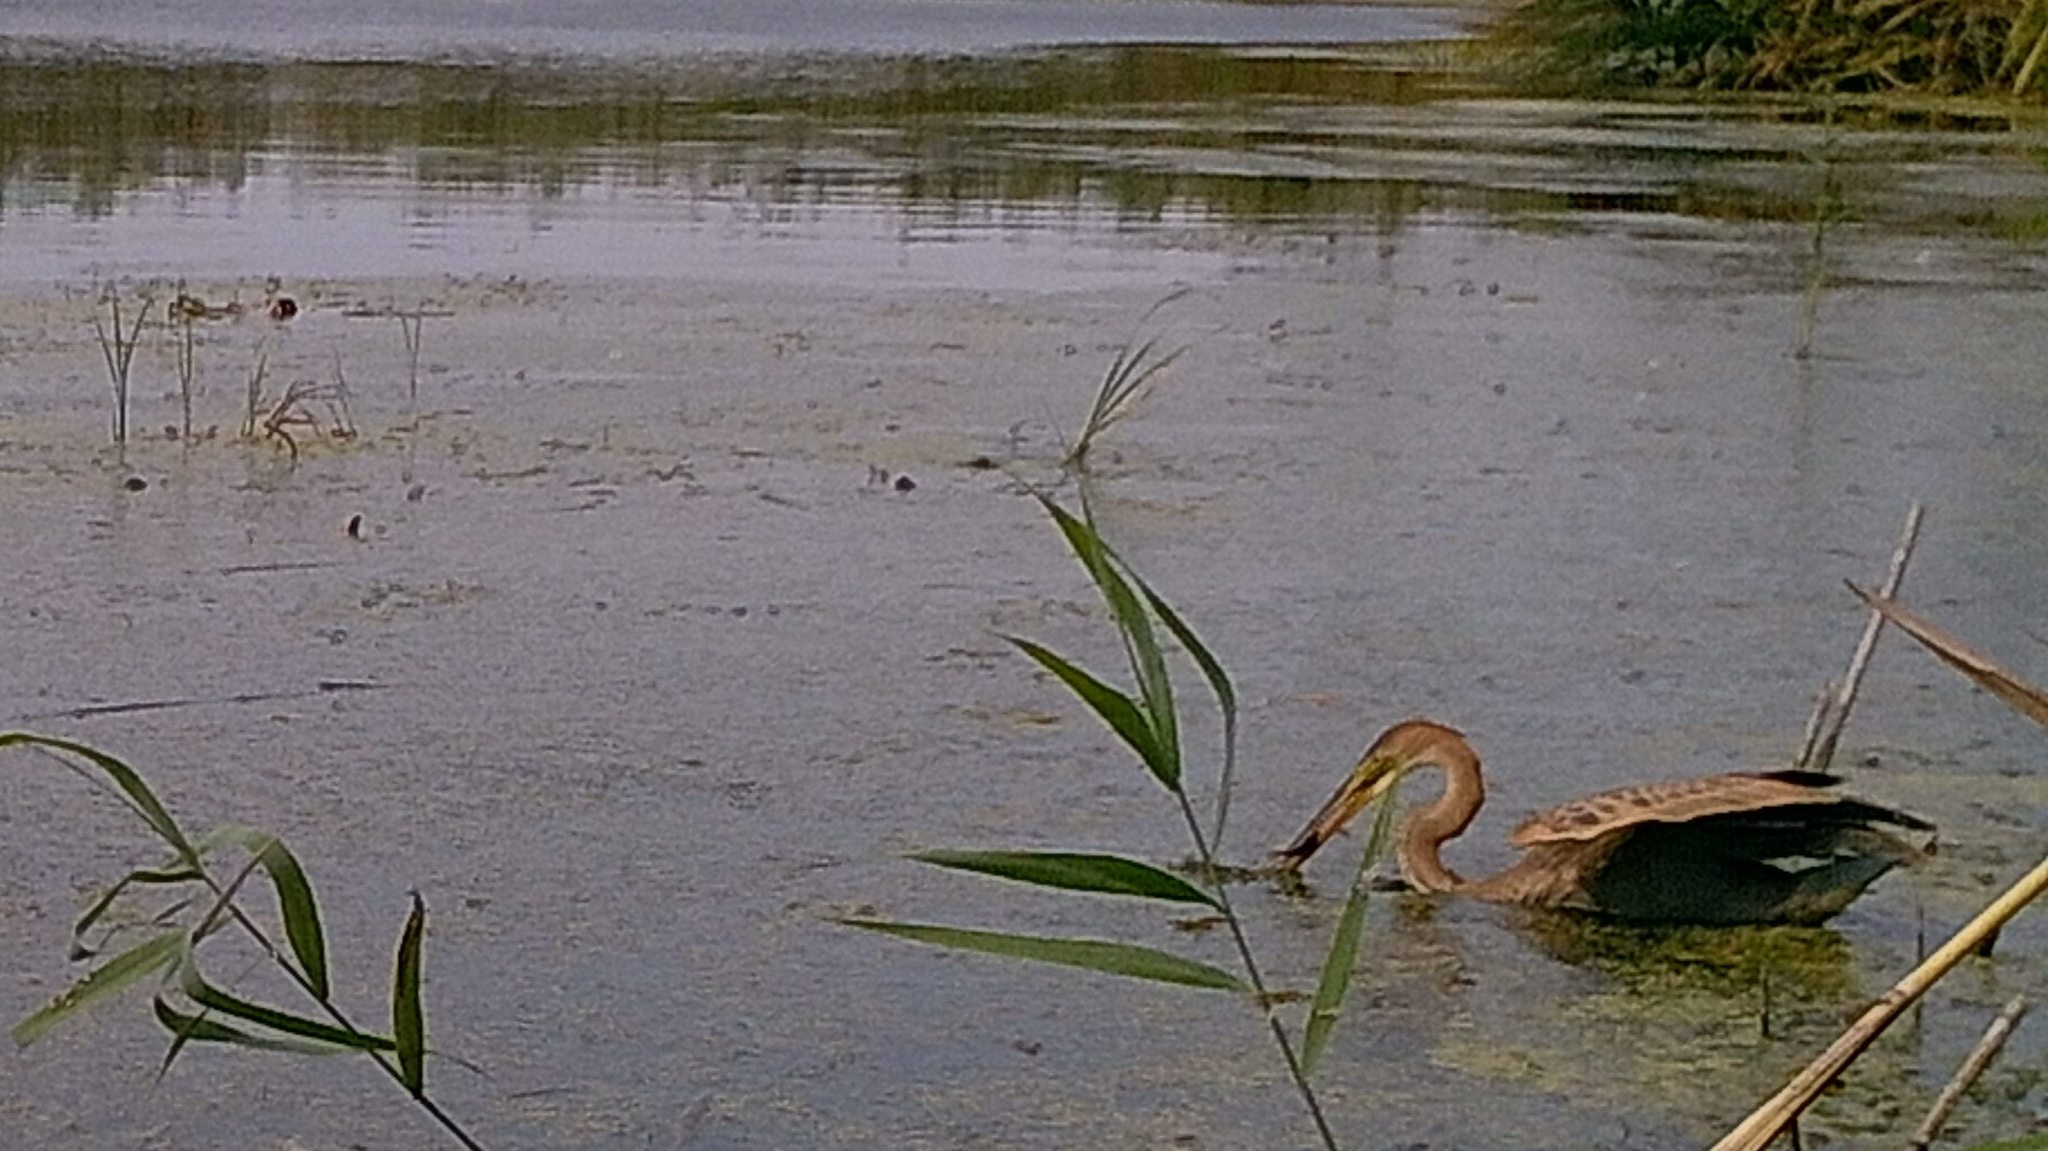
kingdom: Animalia
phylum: Chordata
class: Aves
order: Pelecaniformes
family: Ardeidae
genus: Ardea
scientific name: Ardea purpurea
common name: Purple heron
